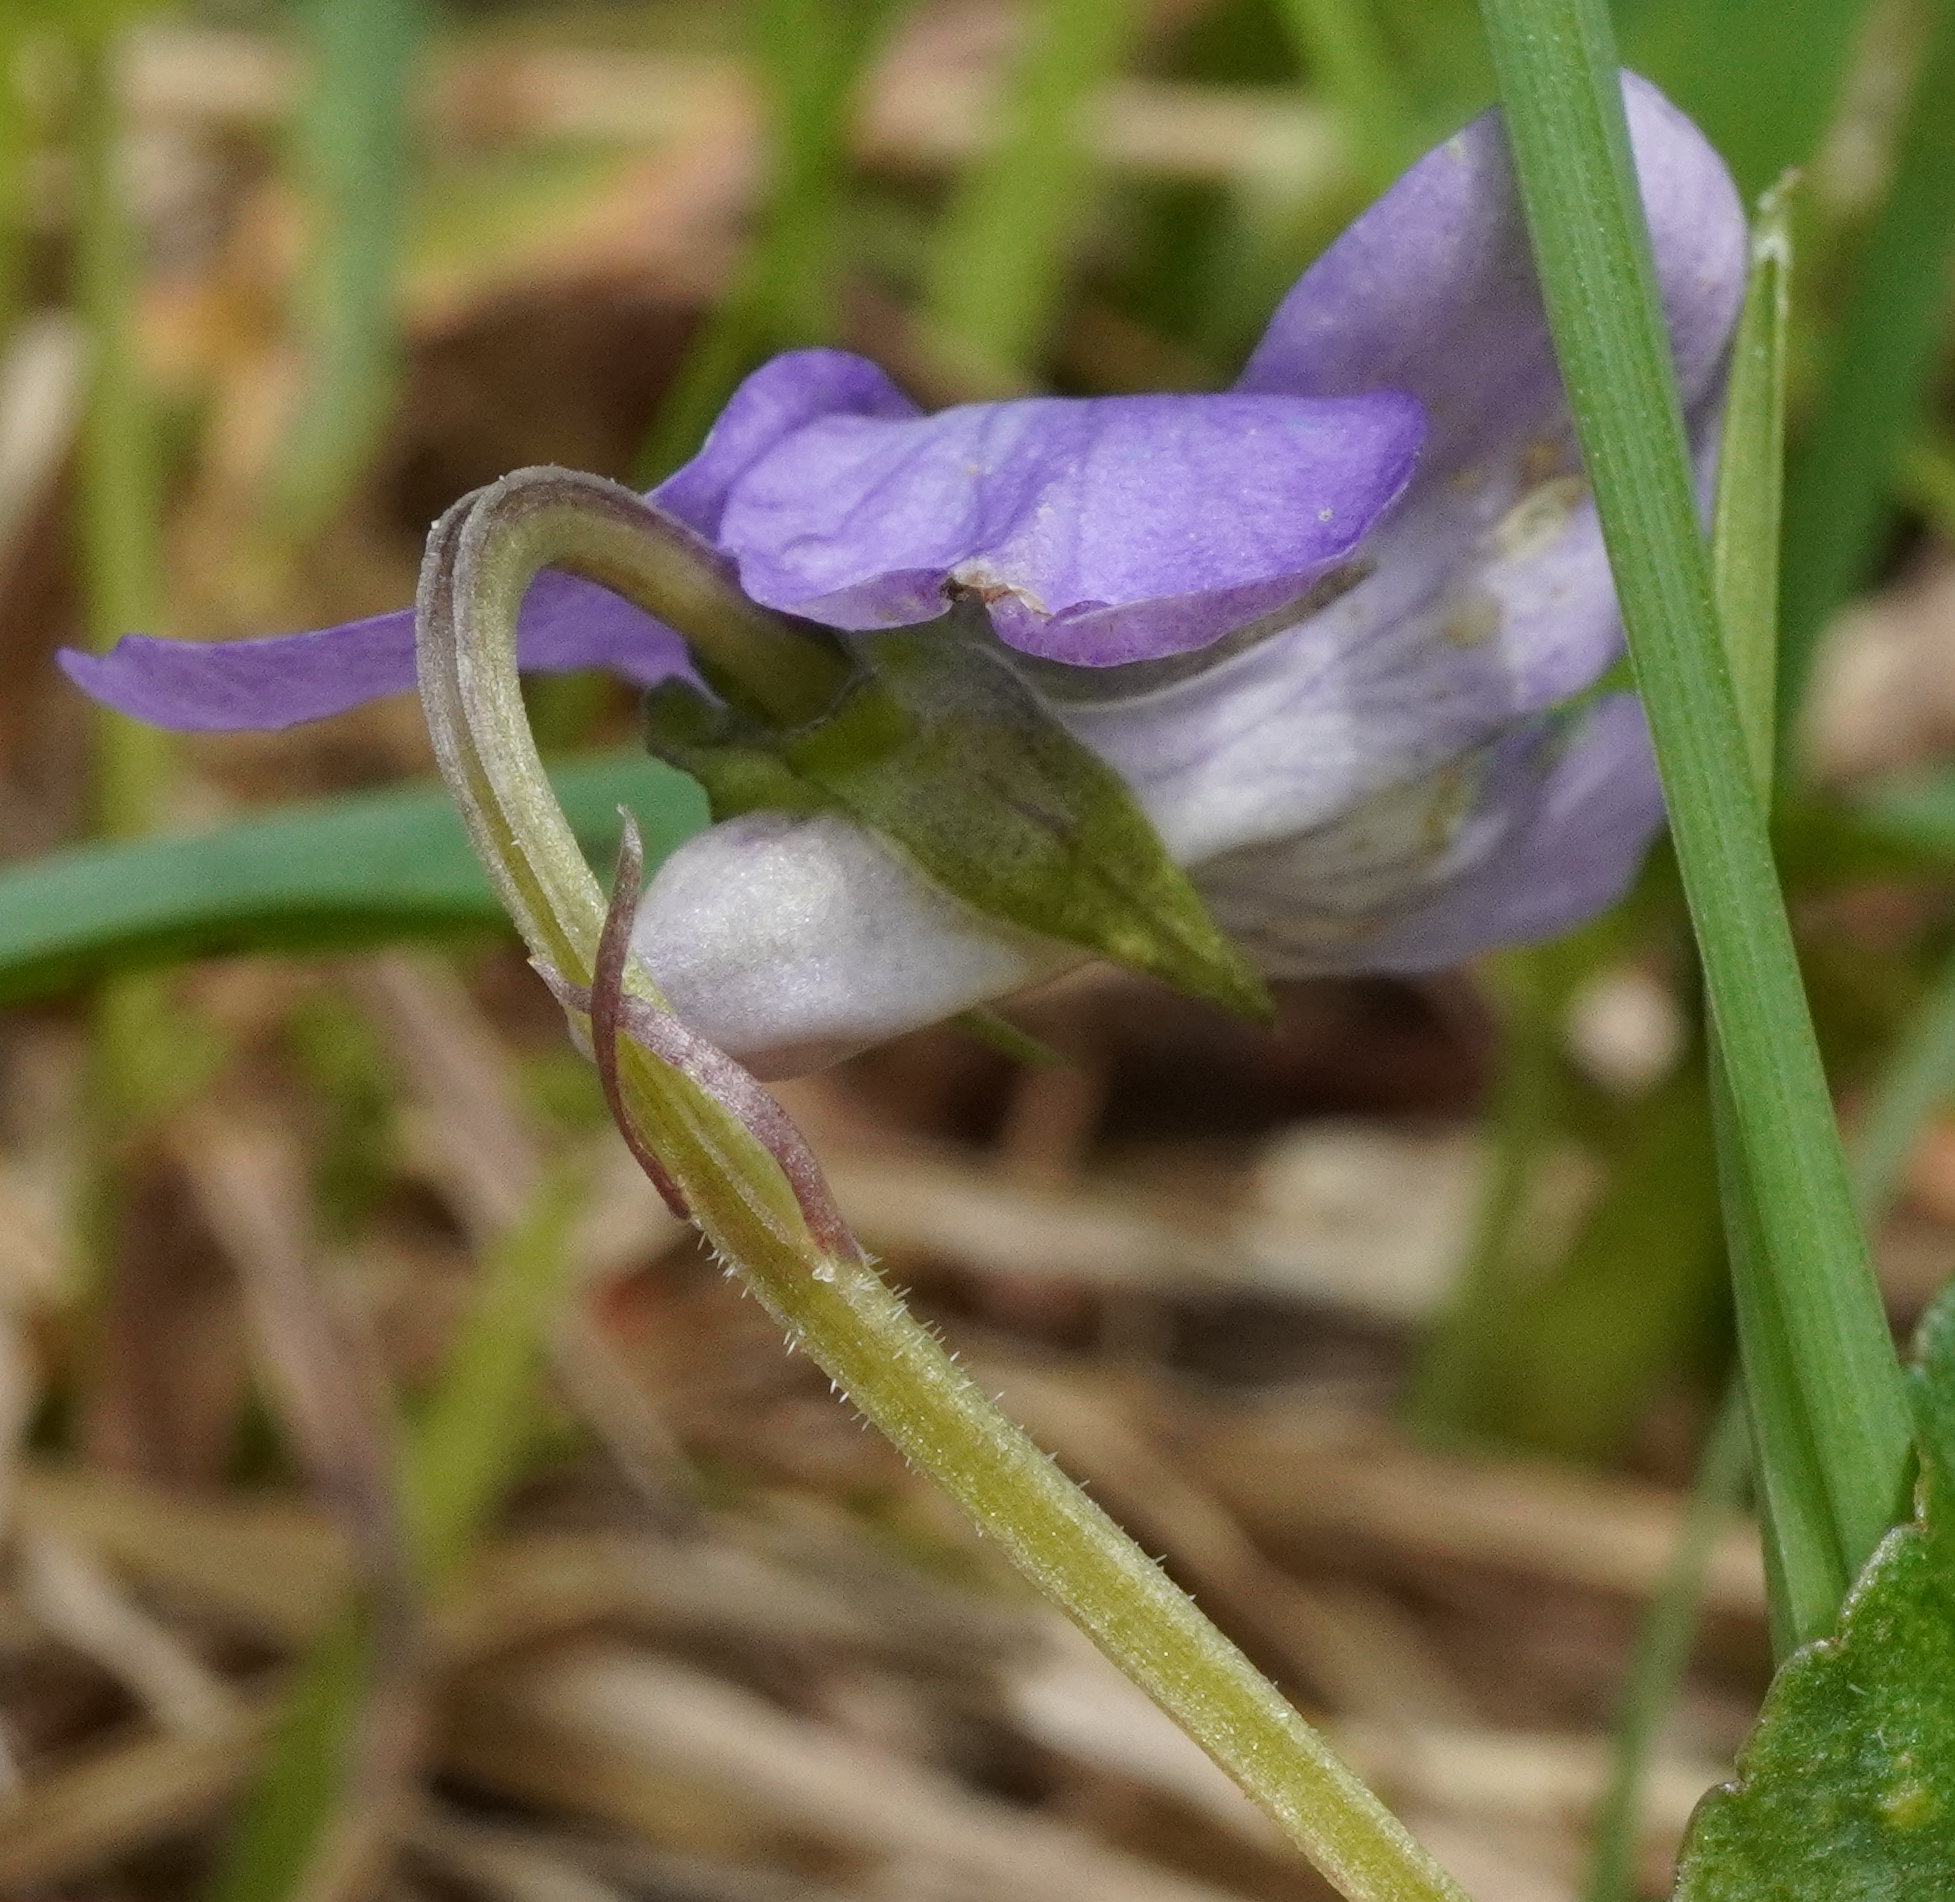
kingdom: Plantae
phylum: Tracheophyta
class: Magnoliopsida
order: Malpighiales
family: Violaceae
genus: Viola
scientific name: Viola riviniana
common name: Common dog-violet
